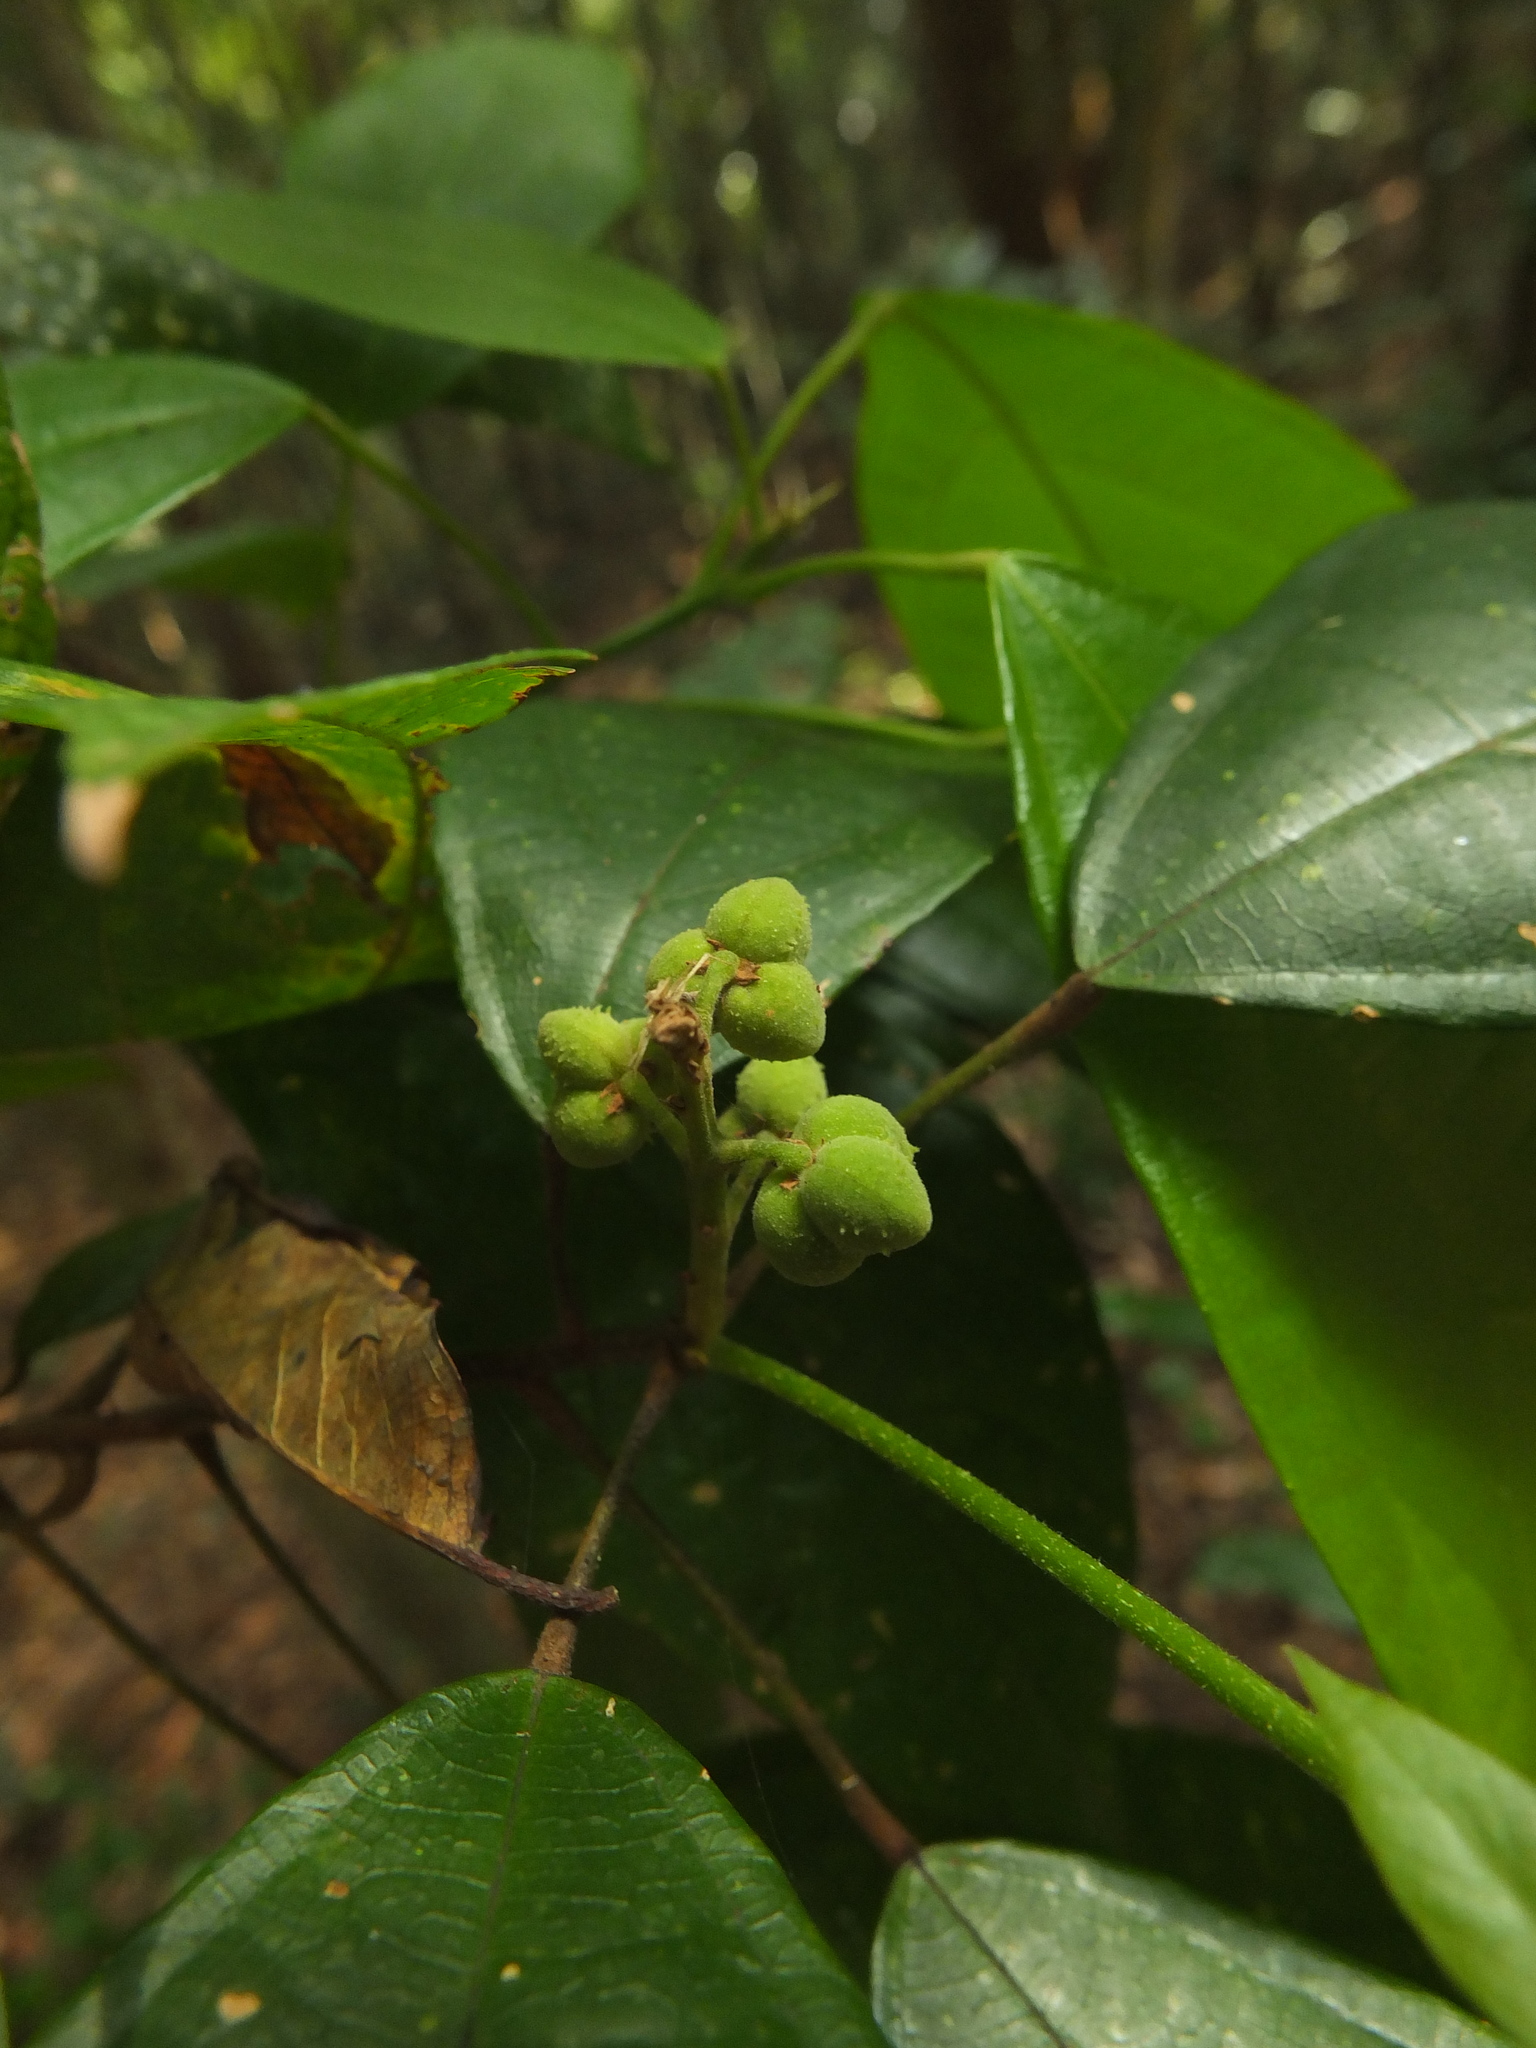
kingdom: Plantae
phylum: Tracheophyta
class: Magnoliopsida
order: Malpighiales
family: Euphorbiaceae
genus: Mallotus
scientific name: Mallotus rhamnifolius
